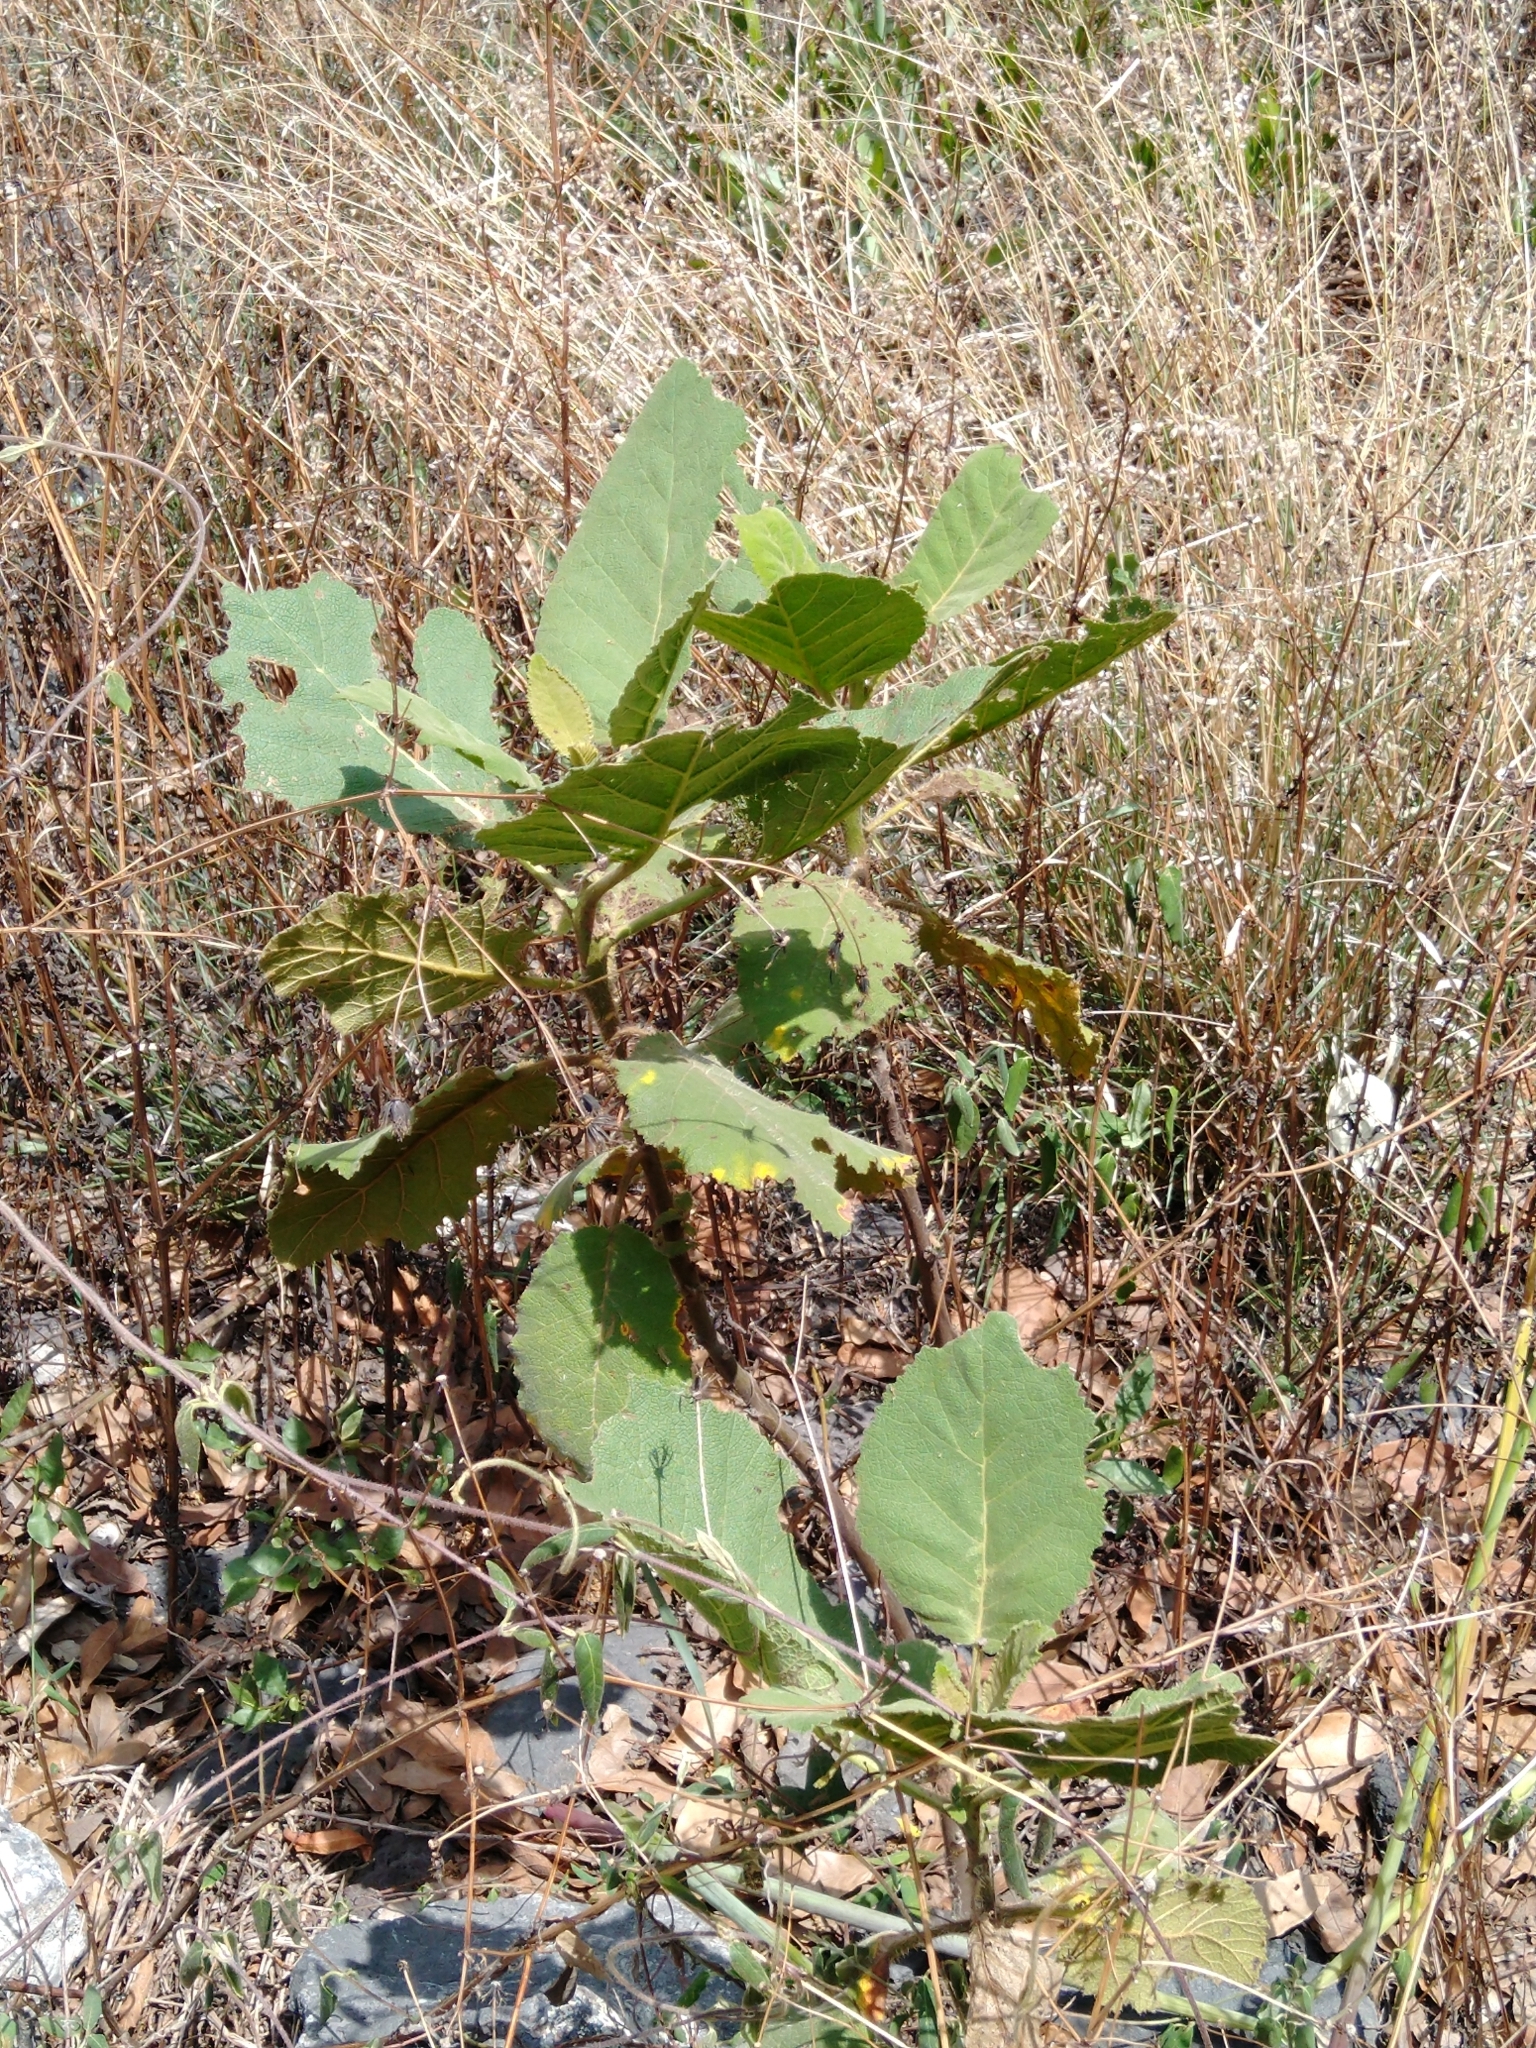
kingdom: Plantae
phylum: Tracheophyta
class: Magnoliopsida
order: Boraginales
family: Namaceae
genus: Wigandia
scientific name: Wigandia urens
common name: Caracus wigandia
